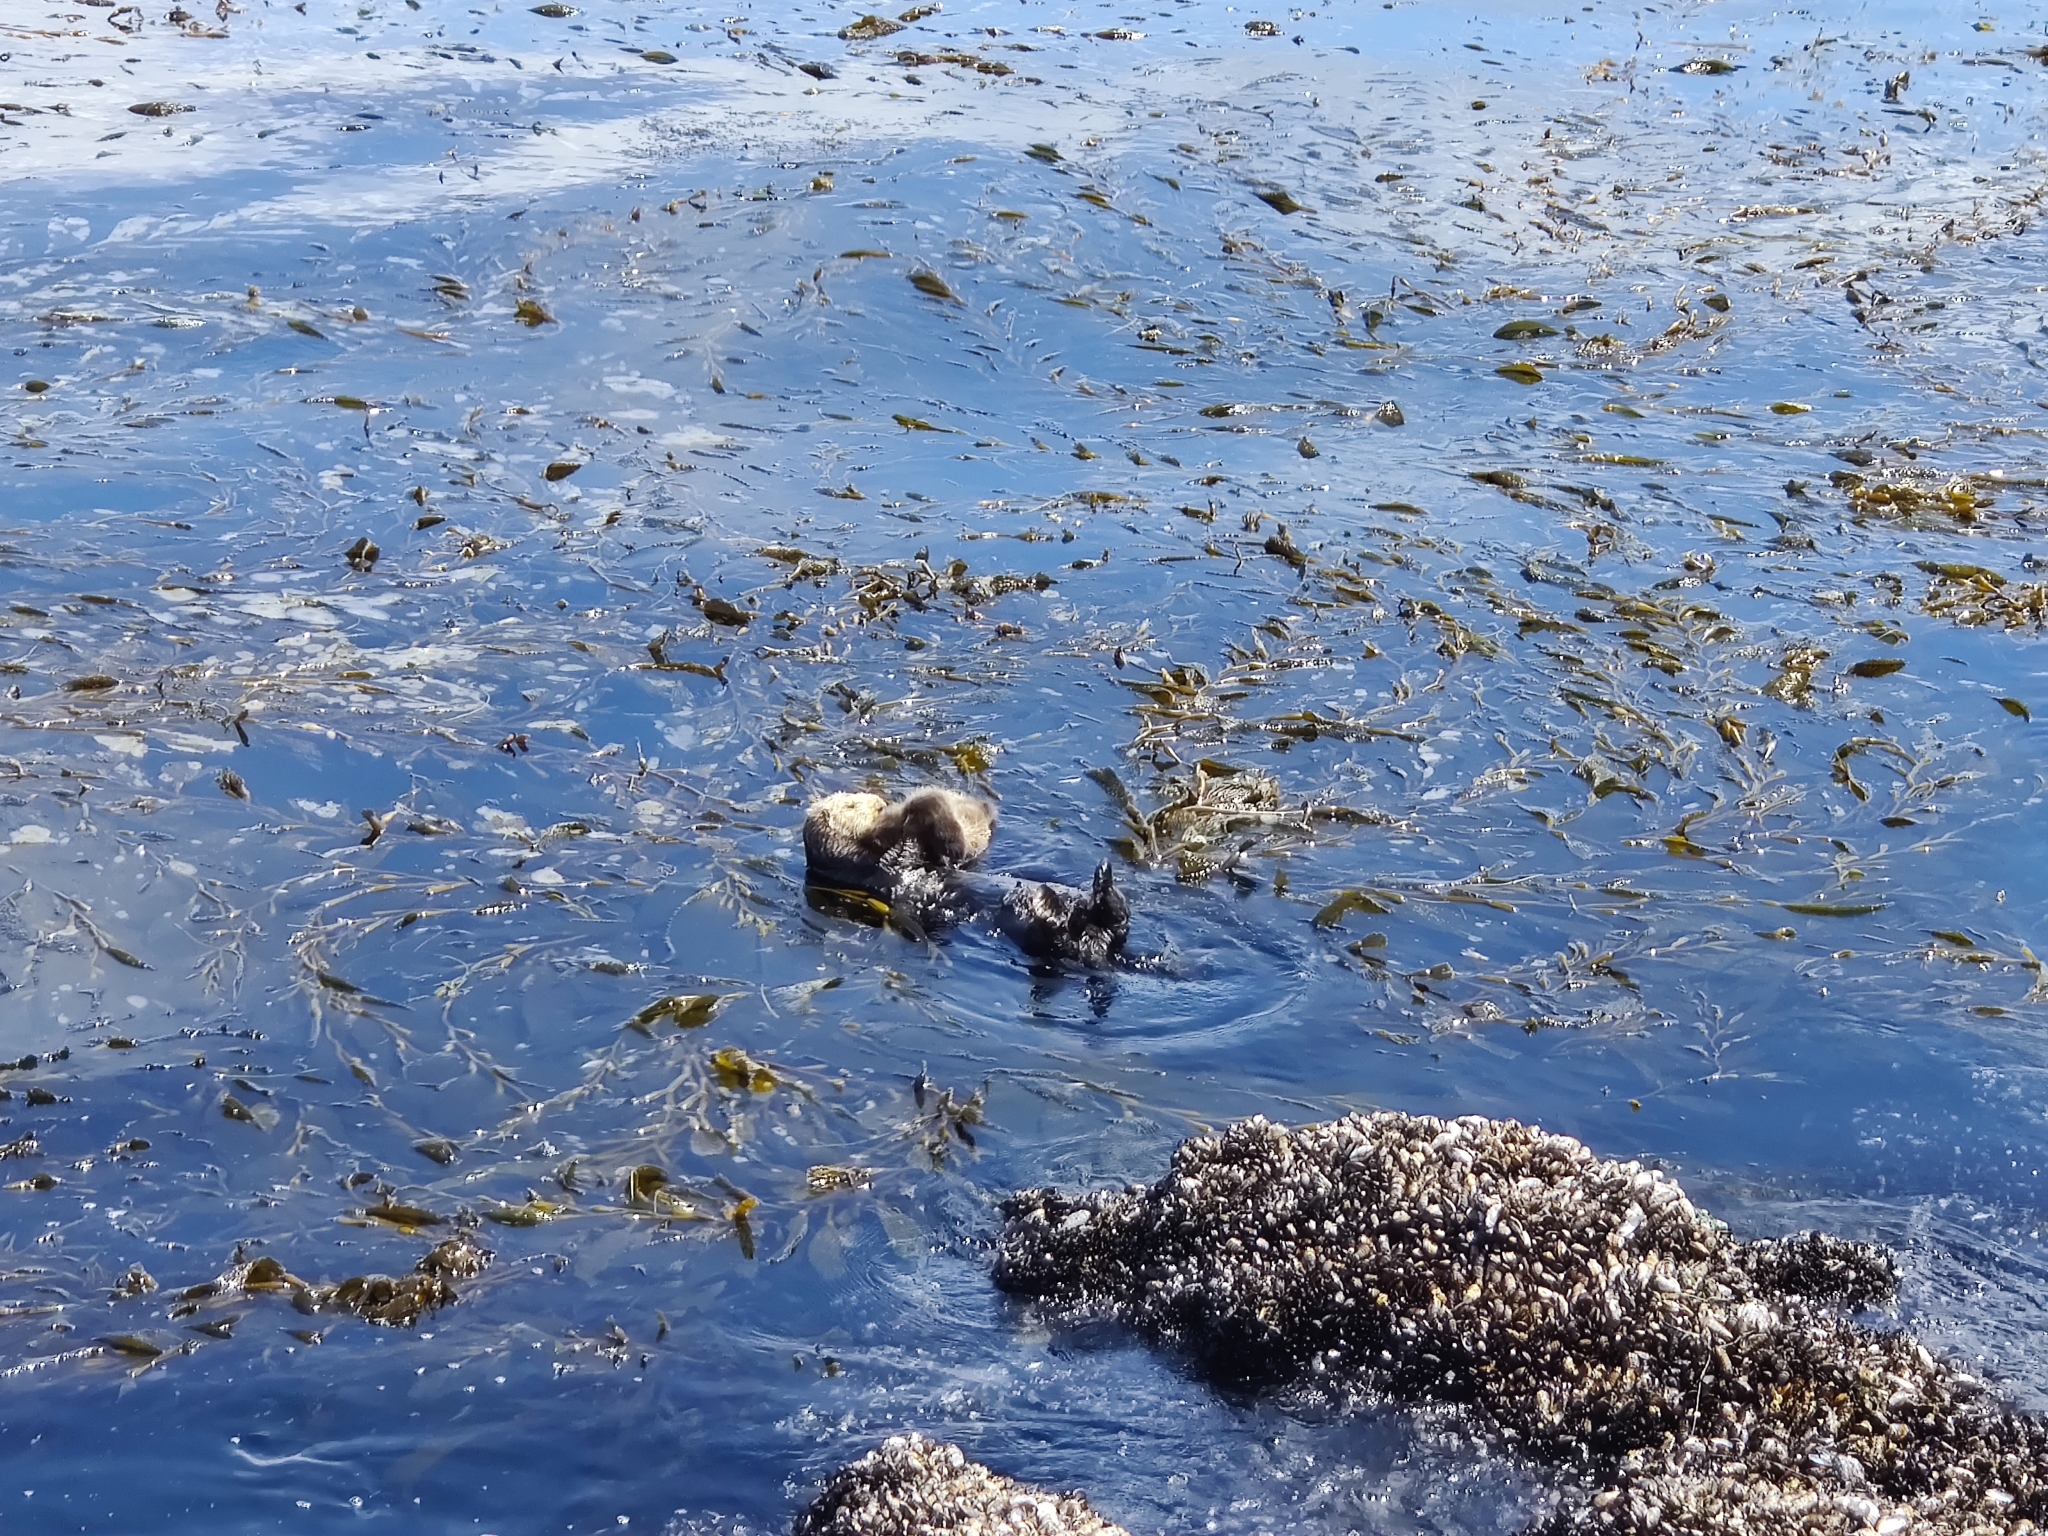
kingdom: Animalia
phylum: Chordata
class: Mammalia
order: Carnivora
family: Mustelidae
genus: Enhydra
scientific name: Enhydra lutris
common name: Sea otter
